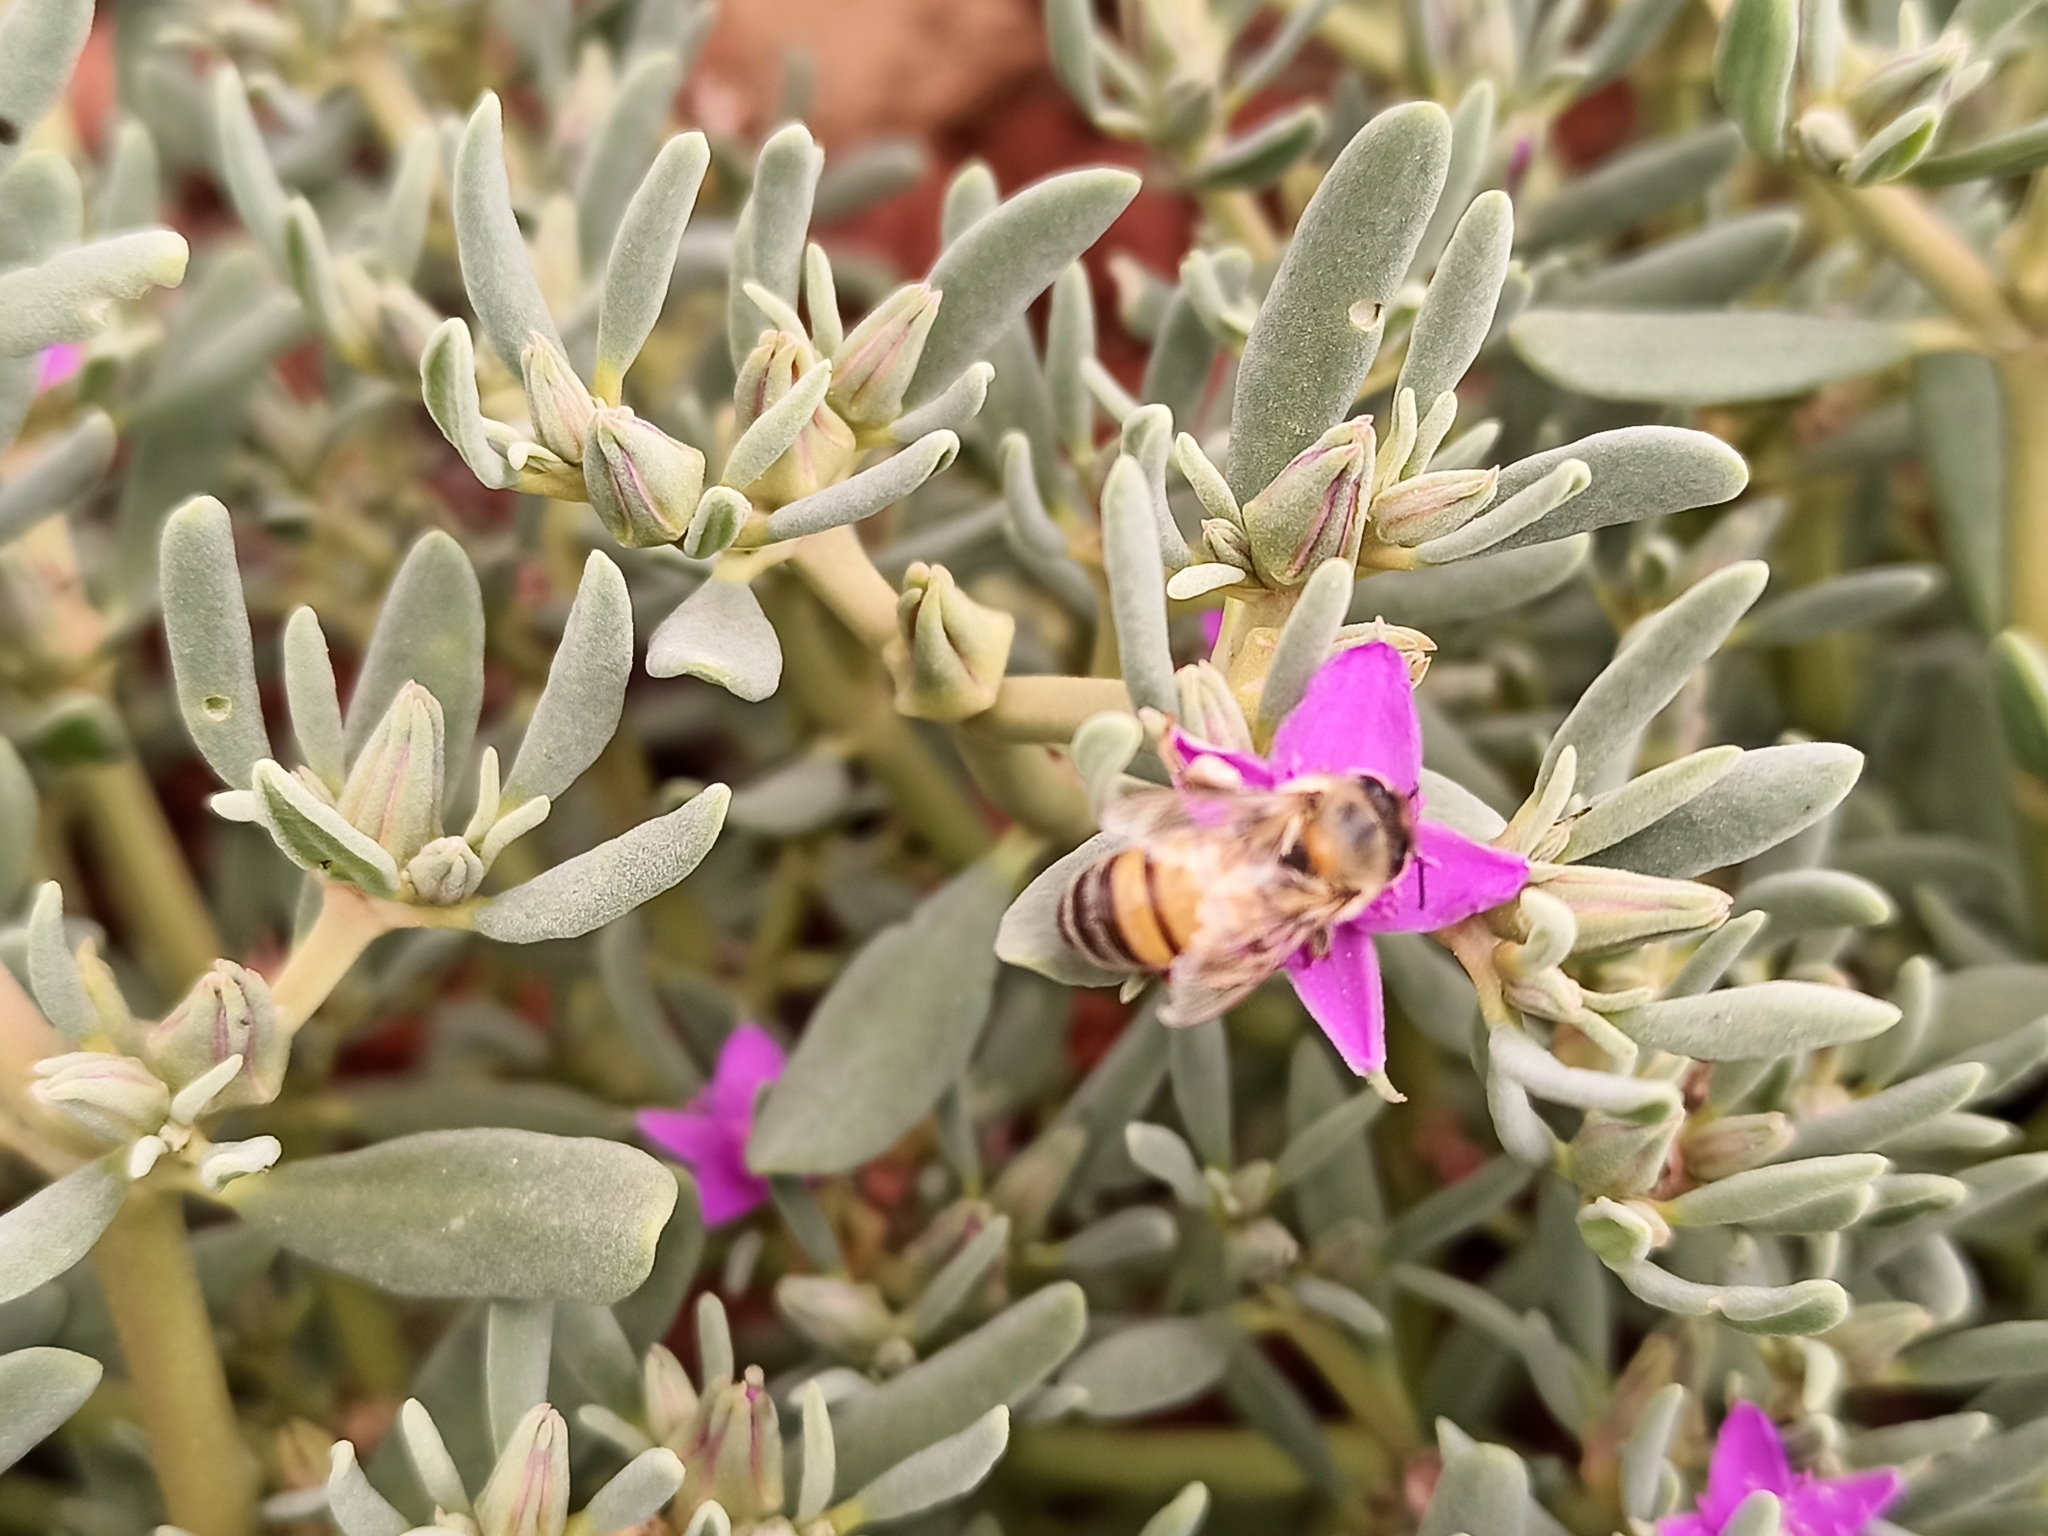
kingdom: Animalia
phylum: Arthropoda
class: Insecta
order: Hymenoptera
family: Apidae
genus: Apis
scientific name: Apis mellifera
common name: Honey bee
